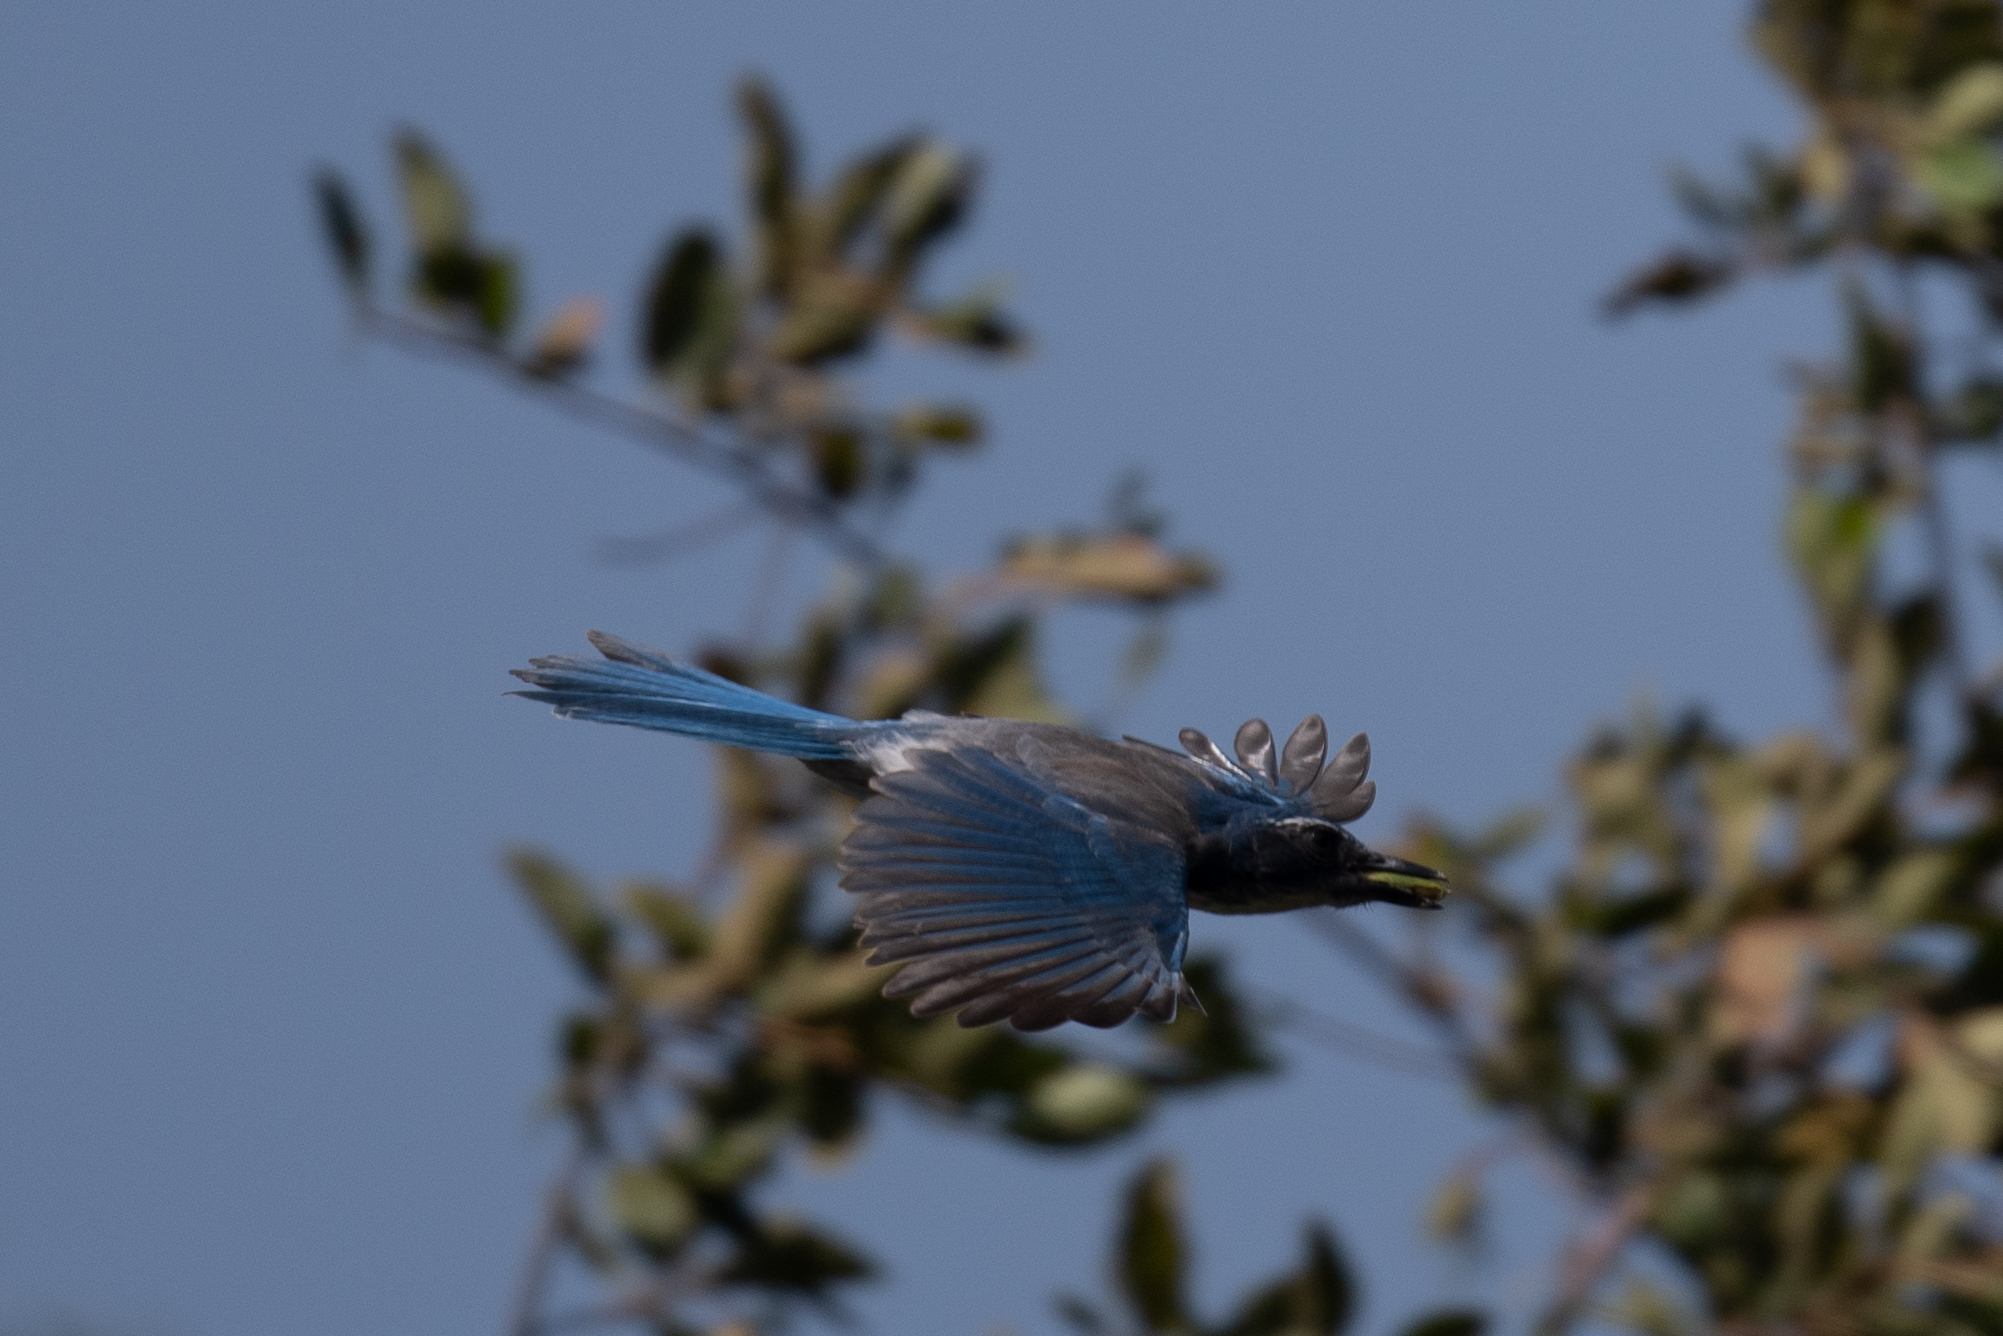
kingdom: Animalia
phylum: Chordata
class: Aves
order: Passeriformes
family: Corvidae
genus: Aphelocoma
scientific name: Aphelocoma californica
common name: California scrub-jay
